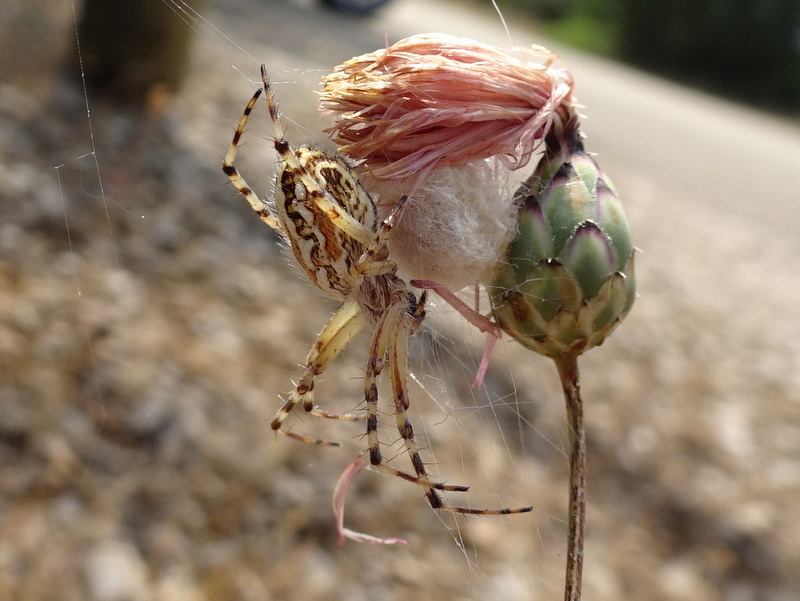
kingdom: Animalia
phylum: Arthropoda
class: Arachnida
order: Araneae
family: Araneidae
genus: Aculepeira
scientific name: Aculepeira armida
